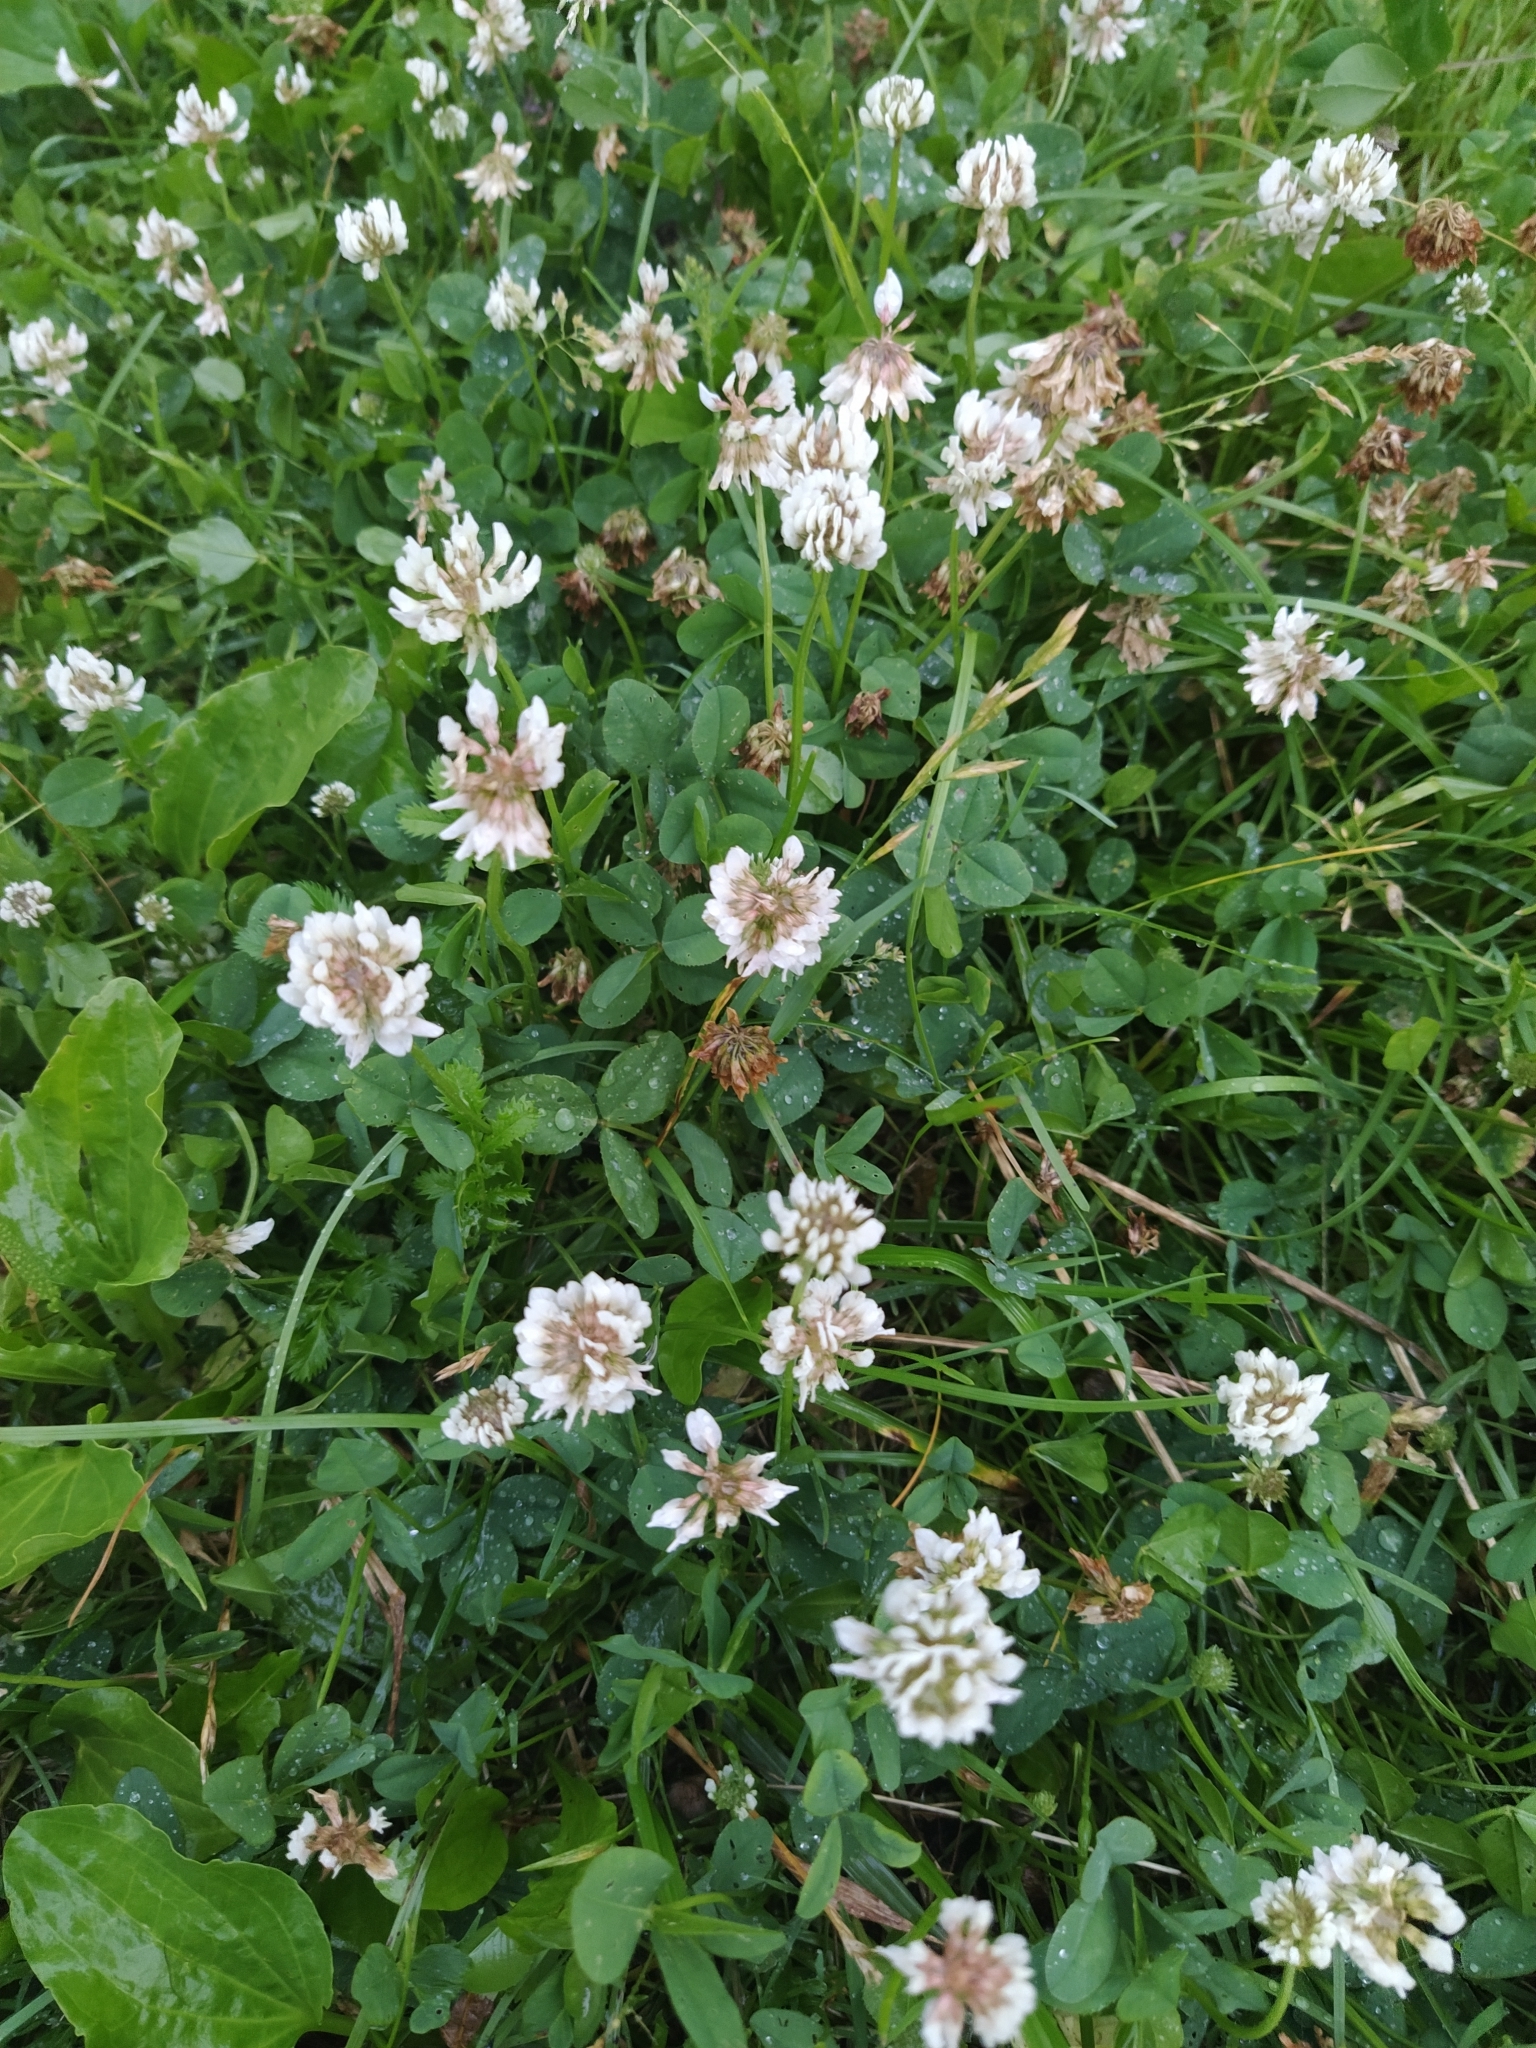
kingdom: Plantae
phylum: Tracheophyta
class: Magnoliopsida
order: Fabales
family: Fabaceae
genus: Trifolium
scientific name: Trifolium repens
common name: White clover
